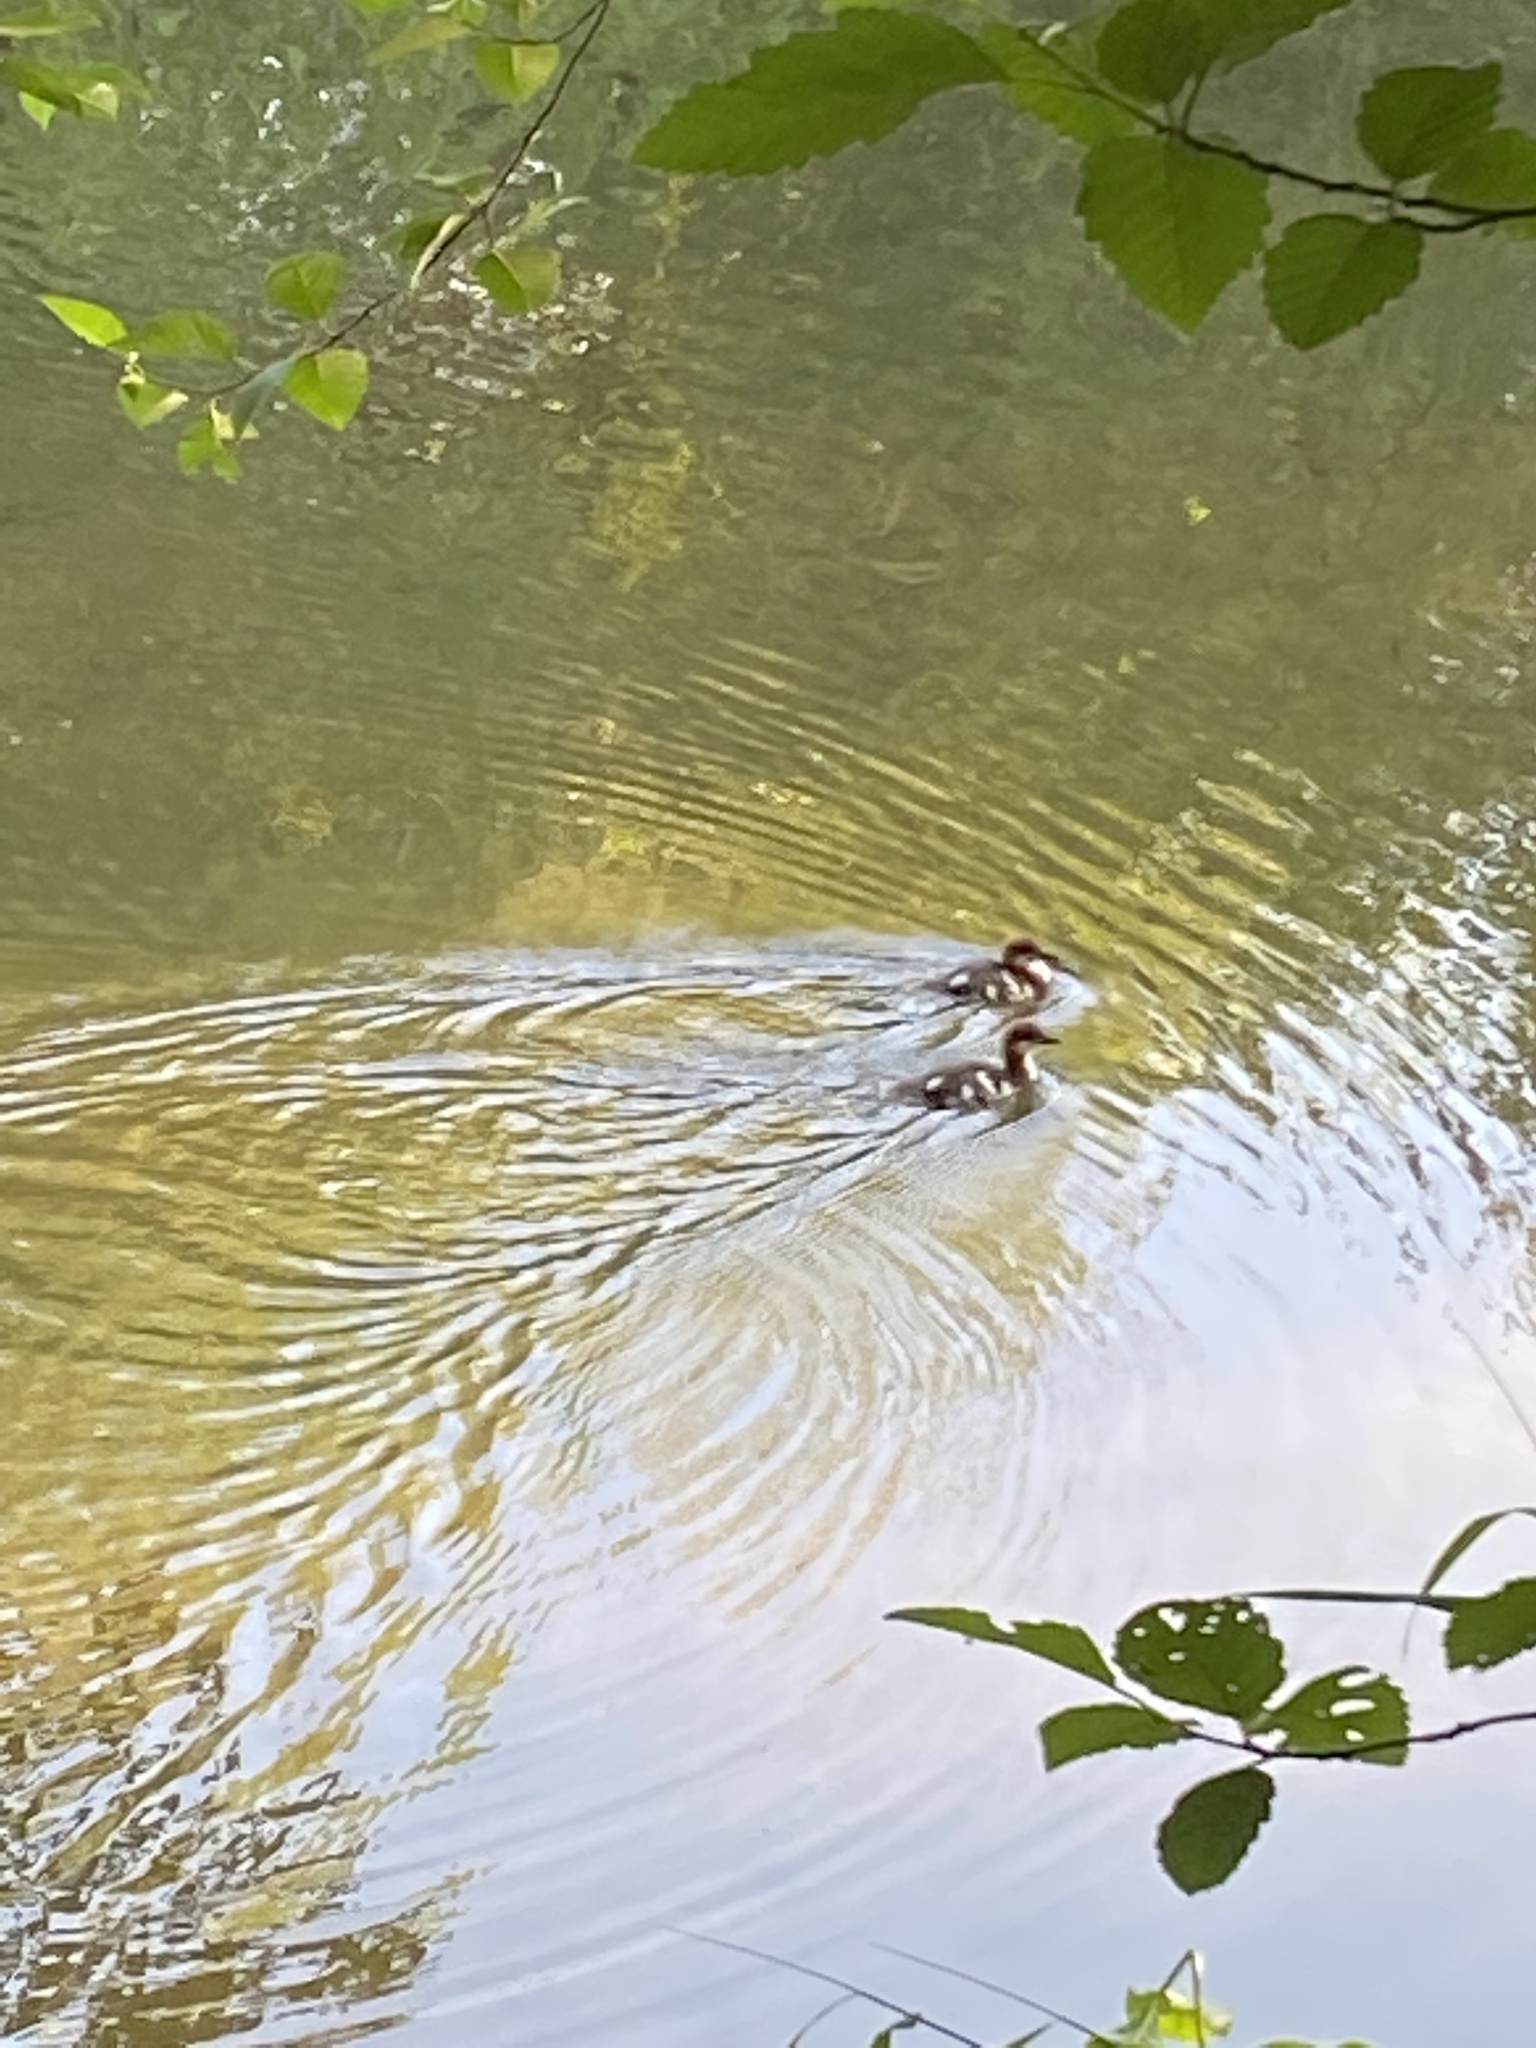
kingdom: Animalia
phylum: Chordata
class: Aves
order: Anseriformes
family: Anatidae
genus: Mergus
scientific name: Mergus merganser
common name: Common merganser
